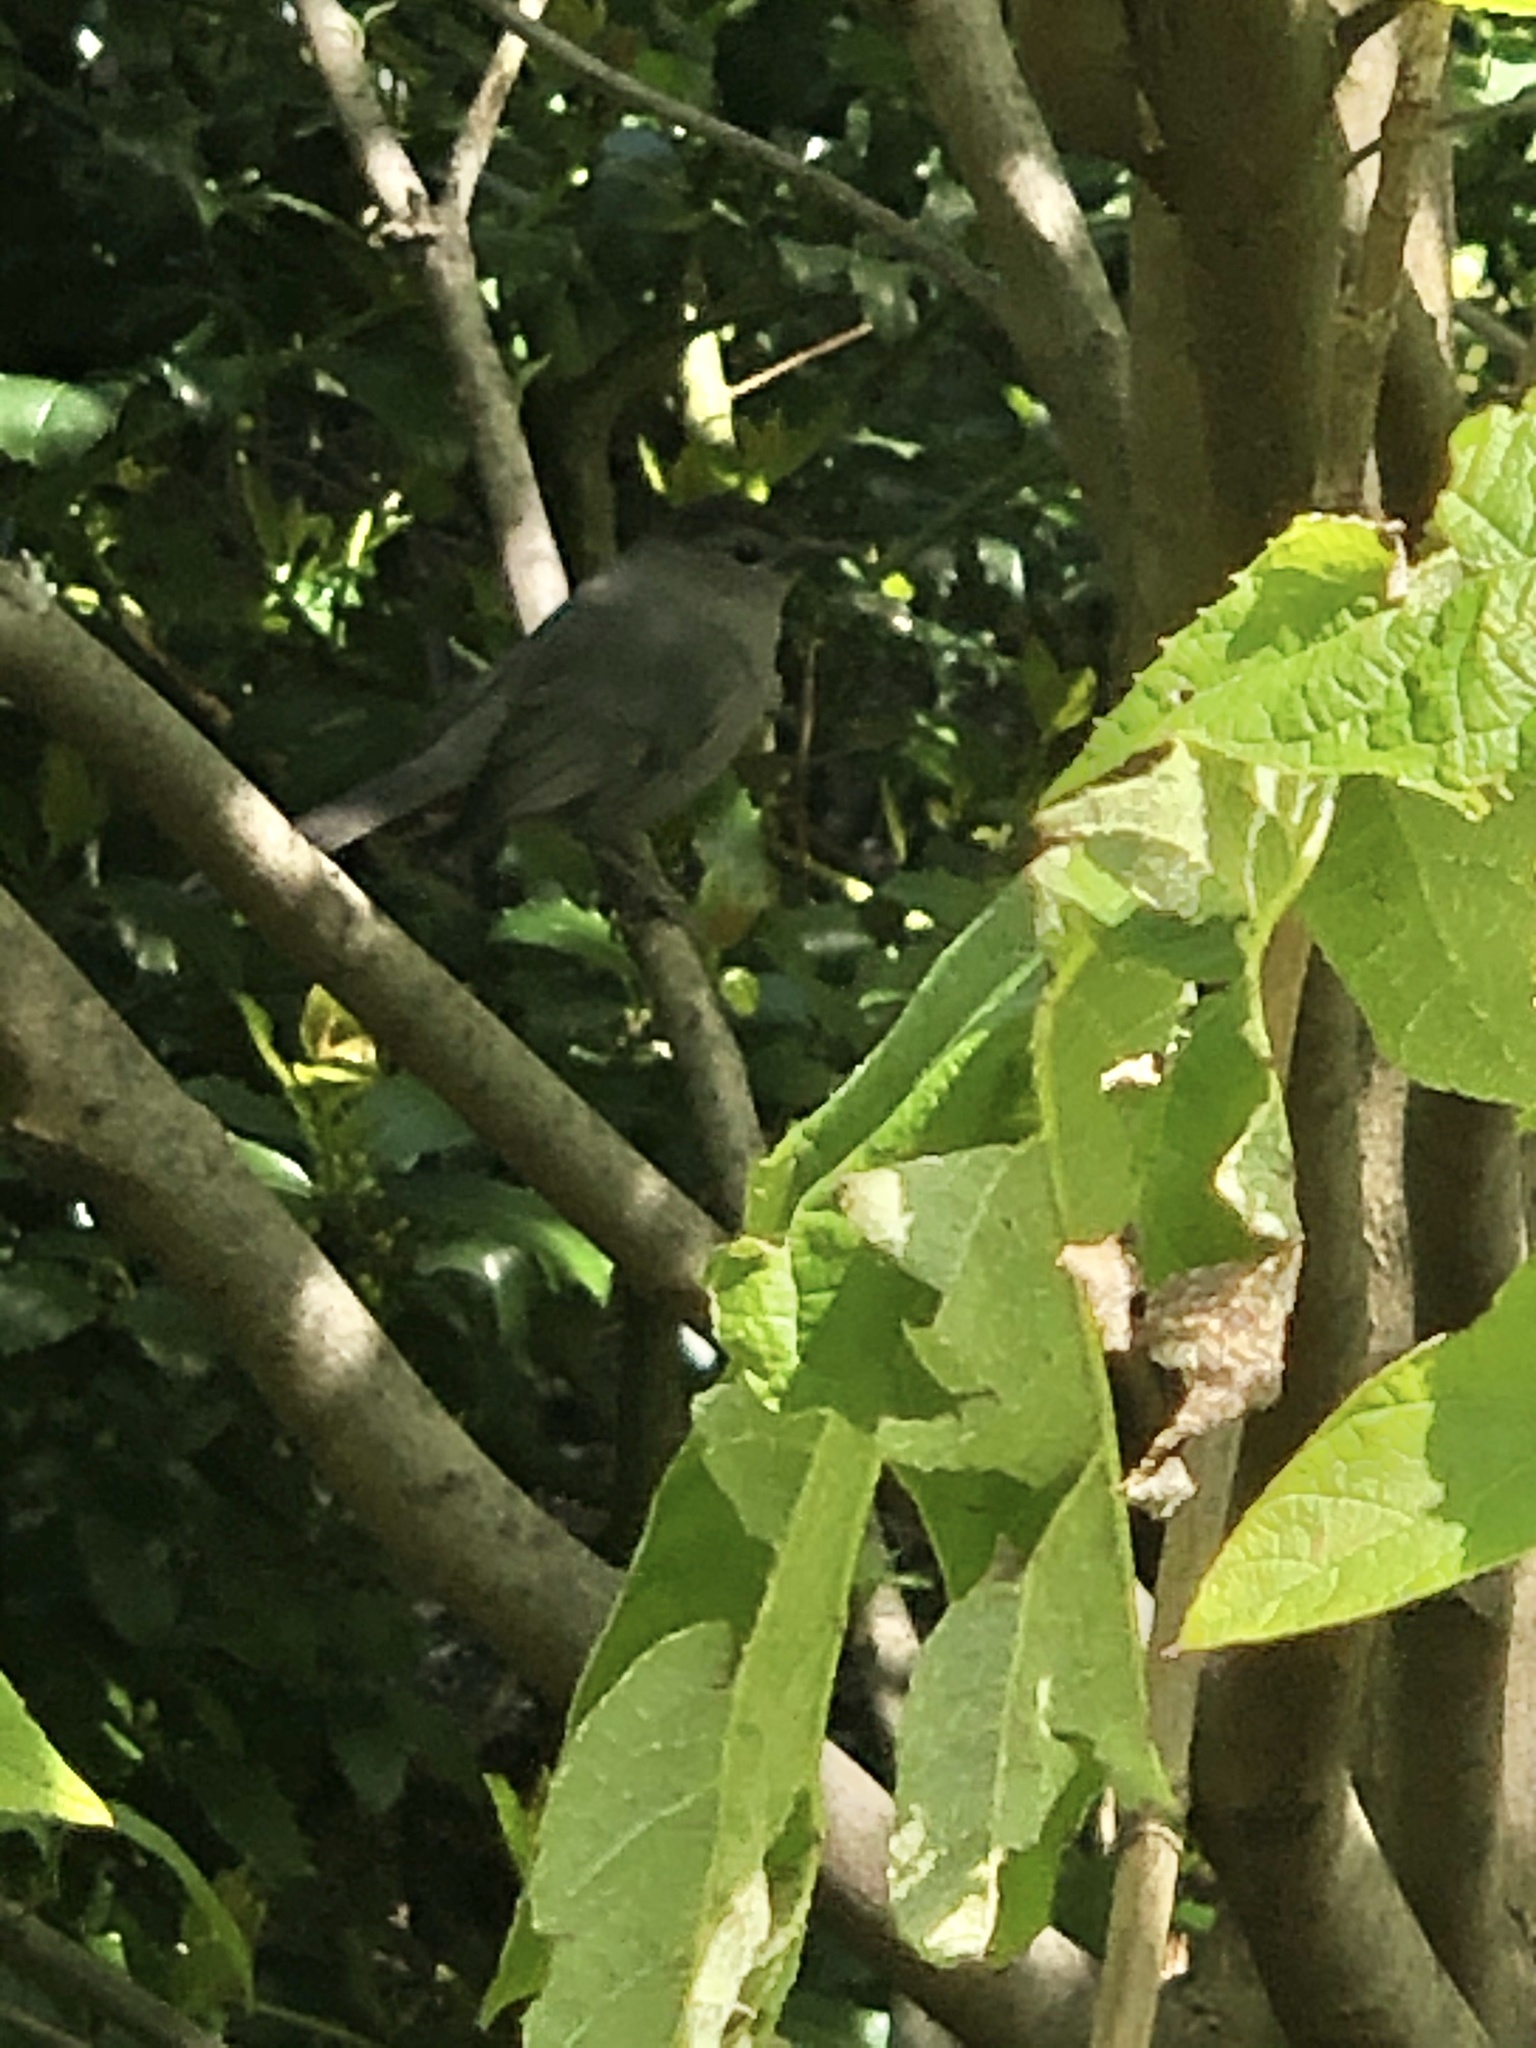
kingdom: Animalia
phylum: Chordata
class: Aves
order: Passeriformes
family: Mimidae
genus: Dumetella
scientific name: Dumetella carolinensis
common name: Gray catbird
